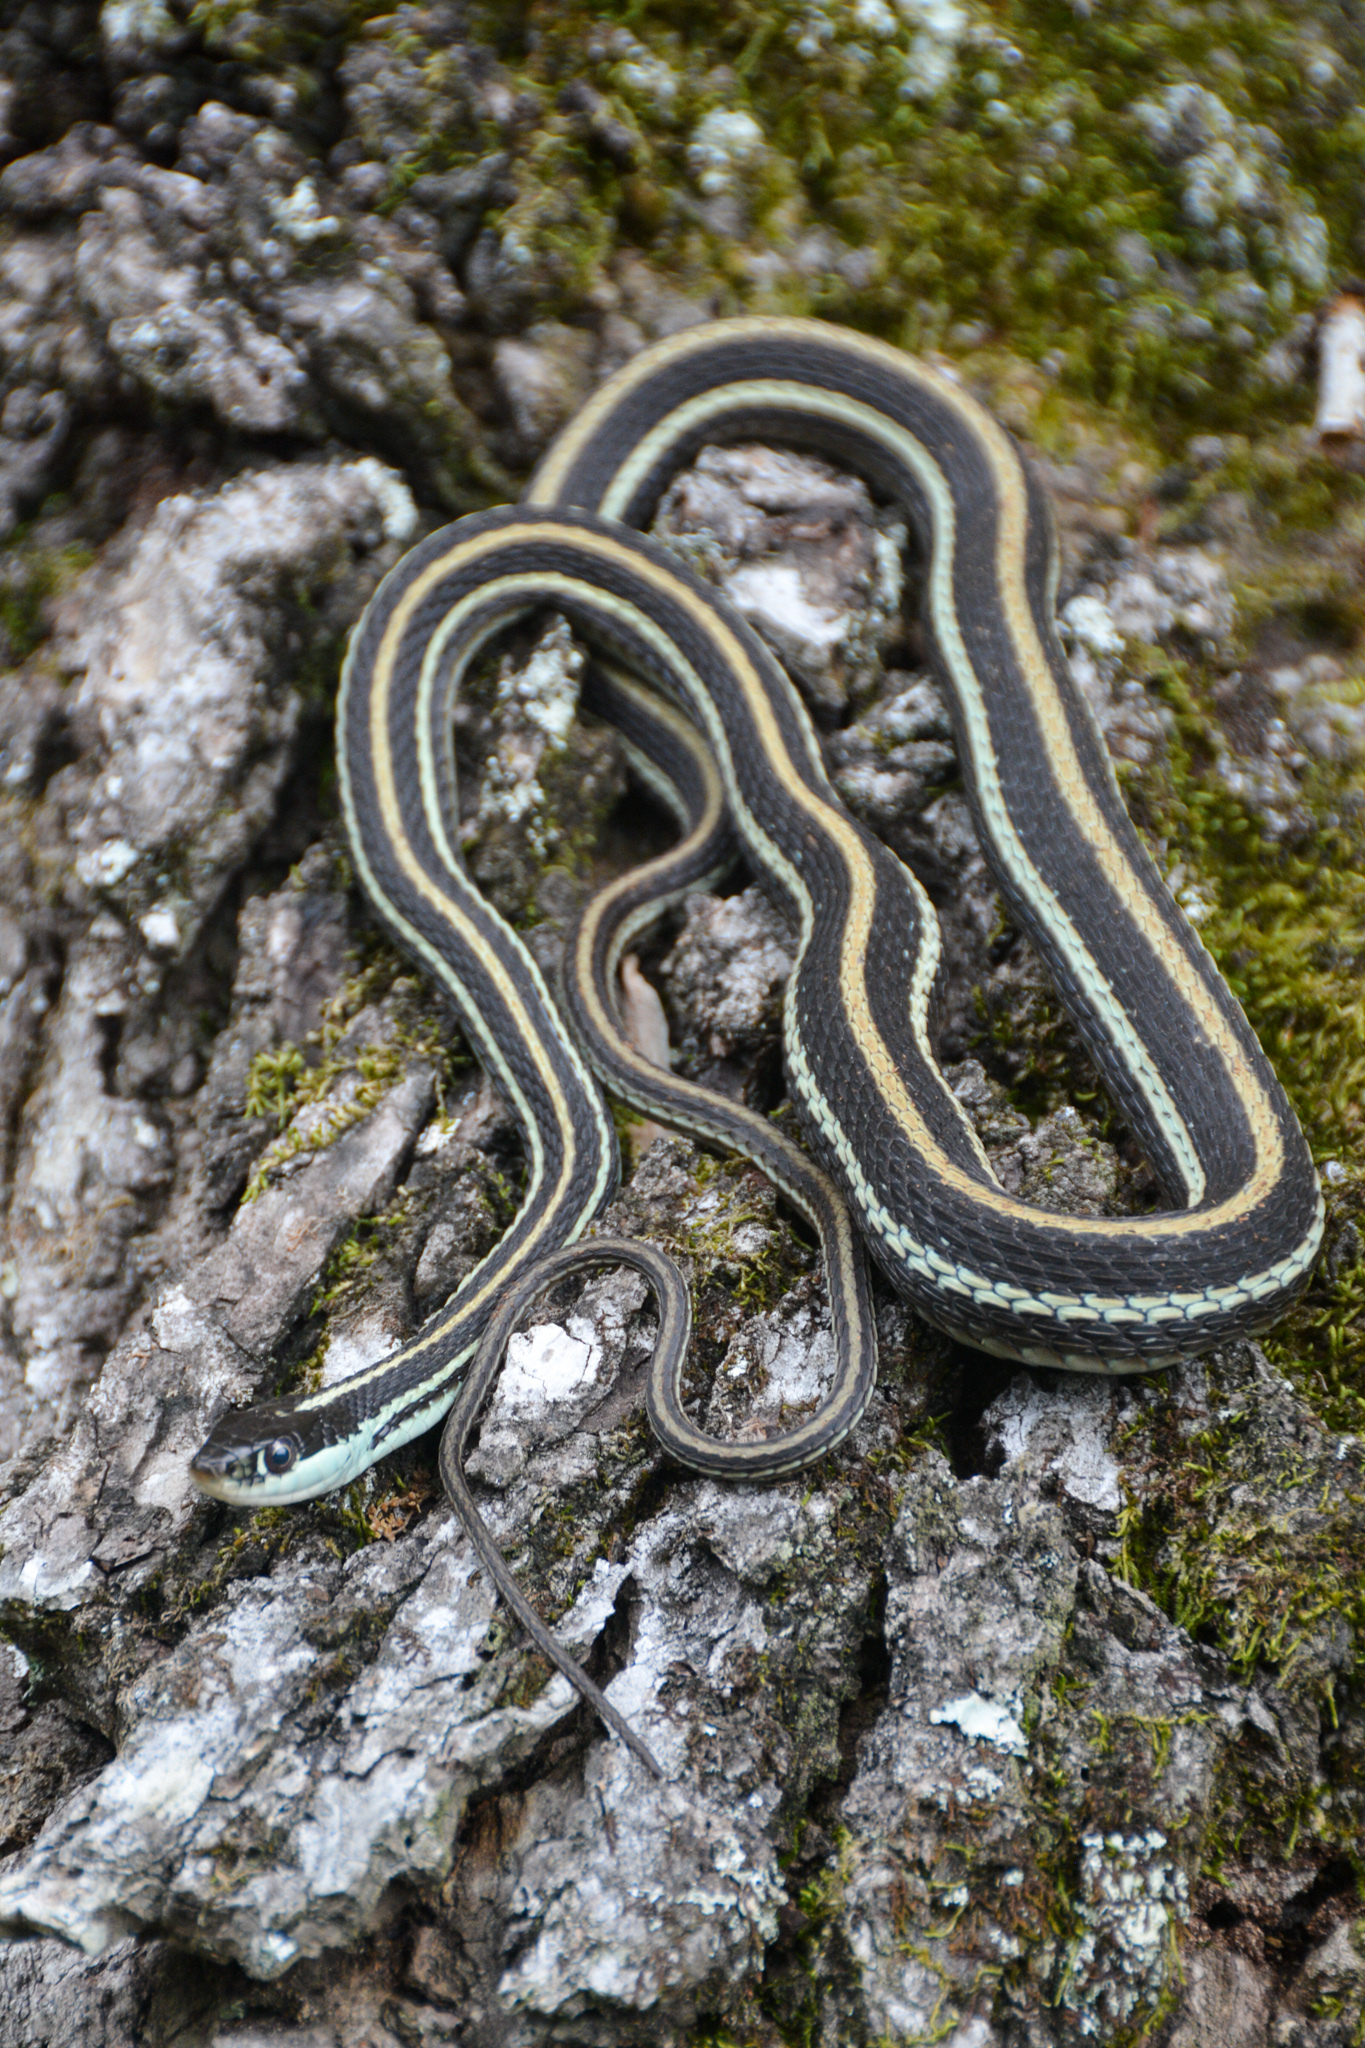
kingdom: Animalia
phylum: Chordata
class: Squamata
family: Colubridae
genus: Thamnophis
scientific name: Thamnophis proximus
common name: Western ribbon snake
